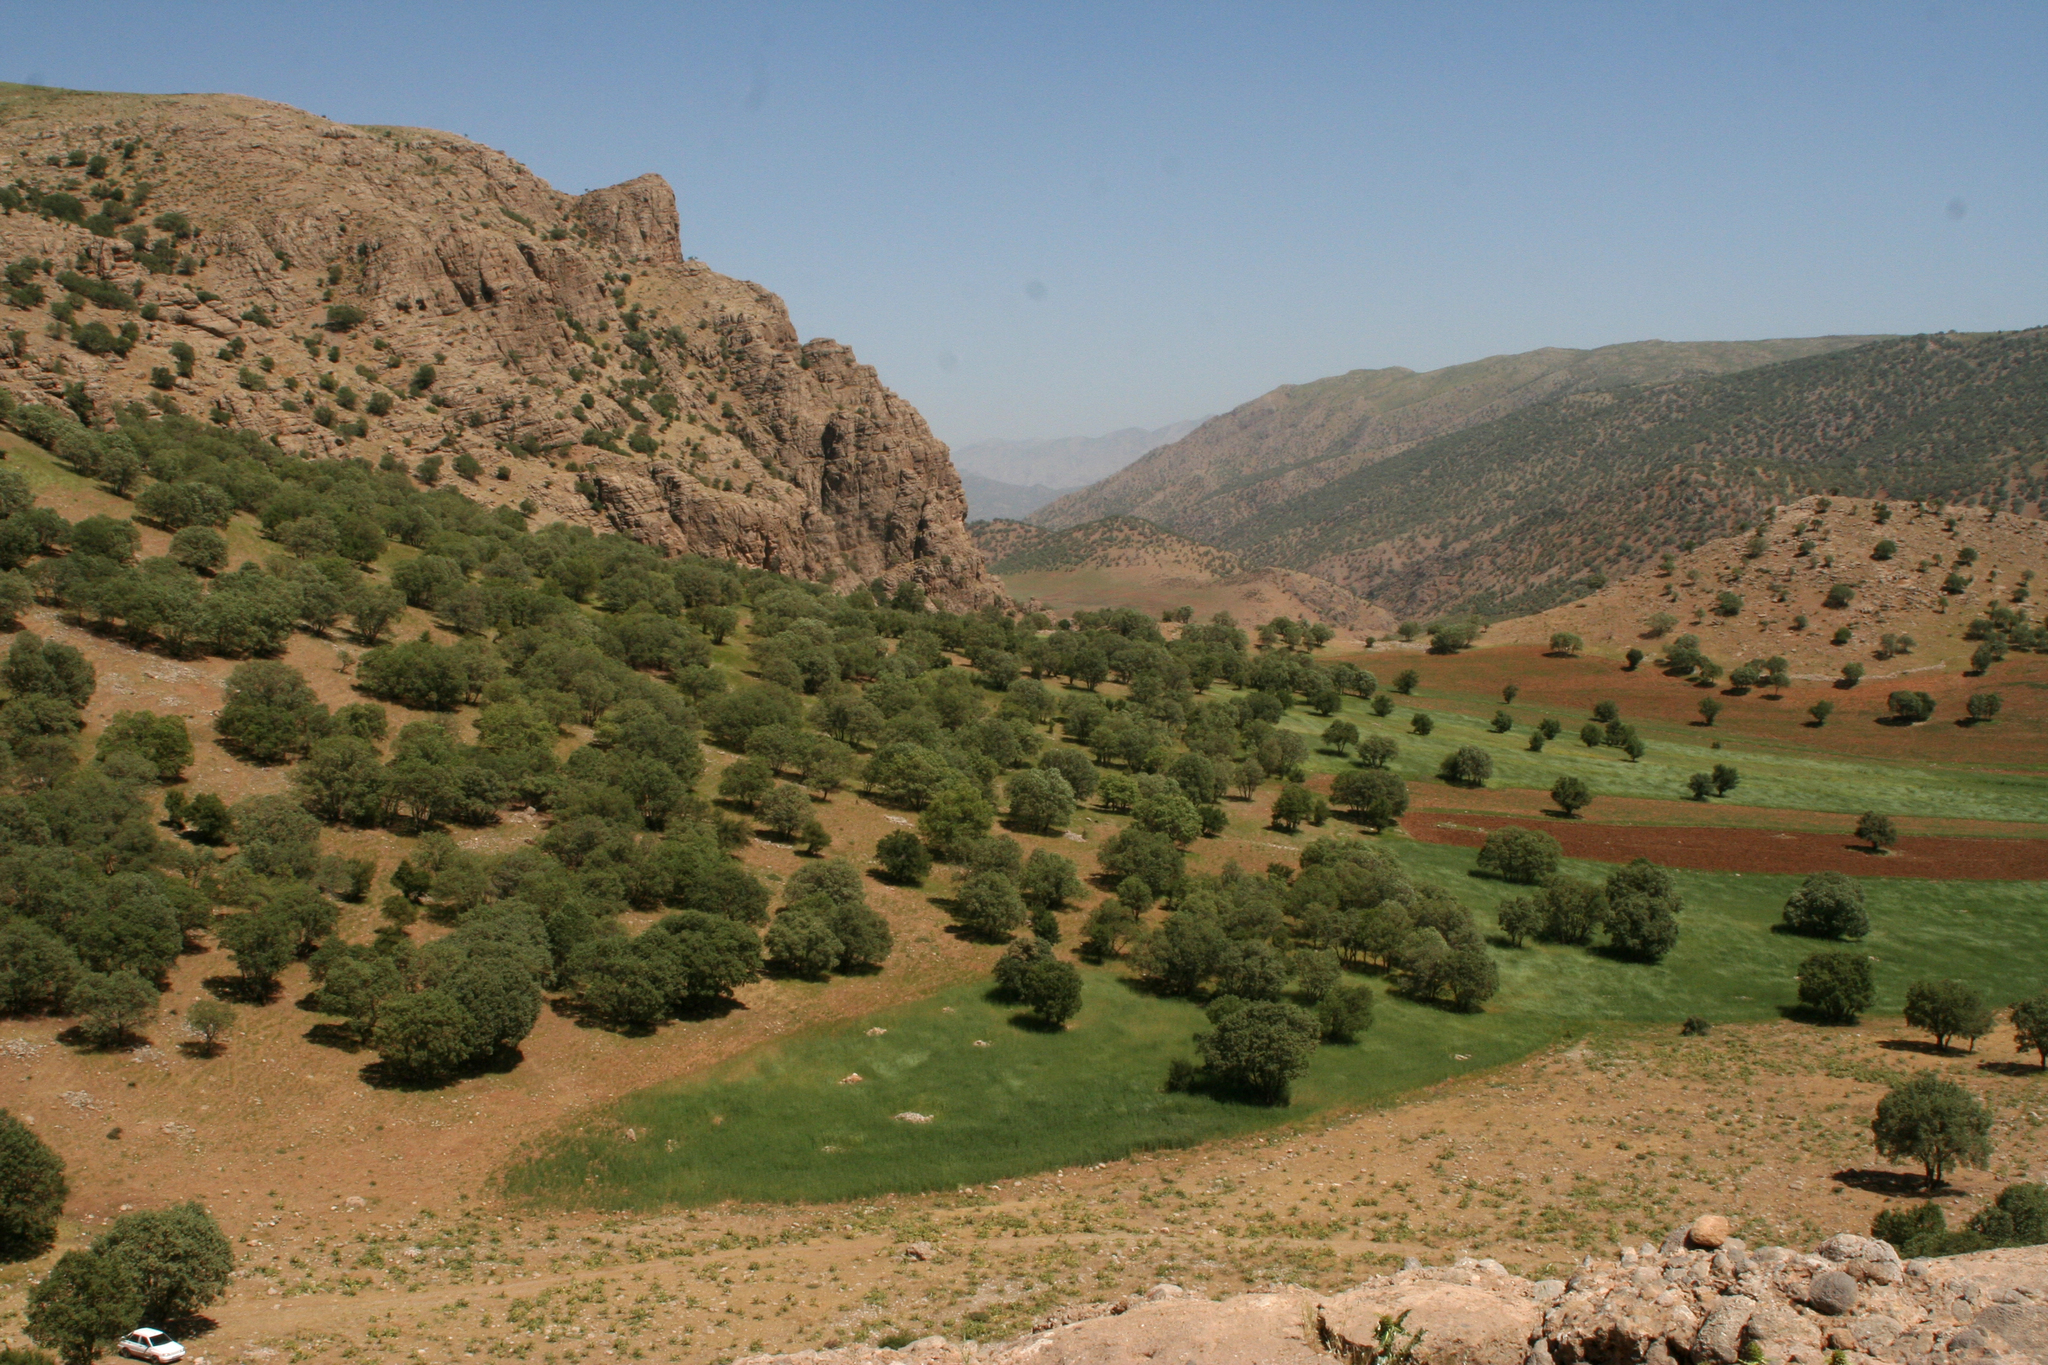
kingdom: Plantae
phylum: Tracheophyta
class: Magnoliopsida
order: Fagales
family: Fagaceae
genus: Quercus
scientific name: Quercus brantii
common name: Brant oak
